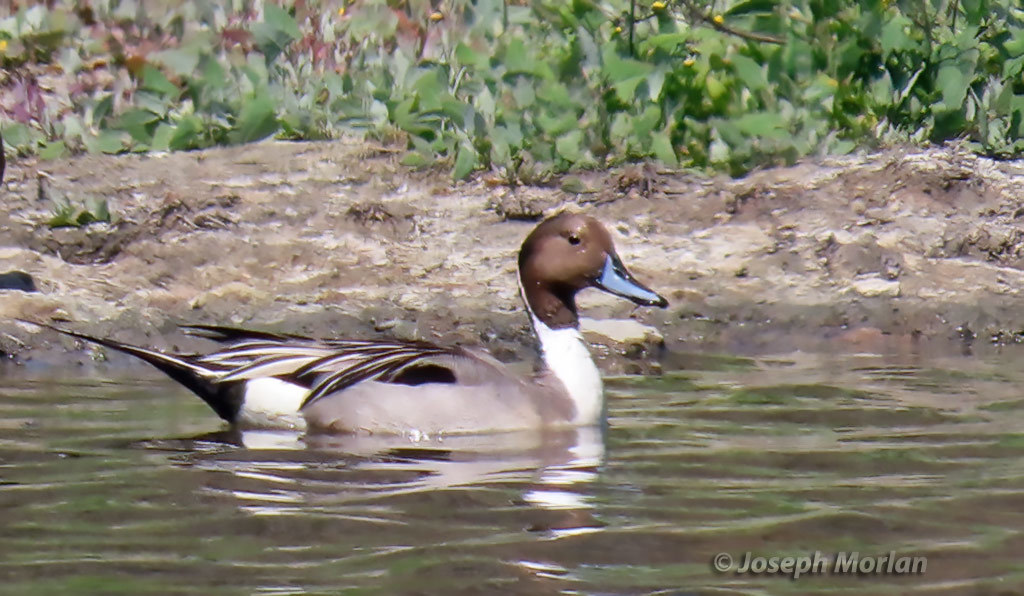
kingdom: Animalia
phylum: Chordata
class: Aves
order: Anseriformes
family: Anatidae
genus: Anas
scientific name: Anas acuta
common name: Northern pintail
